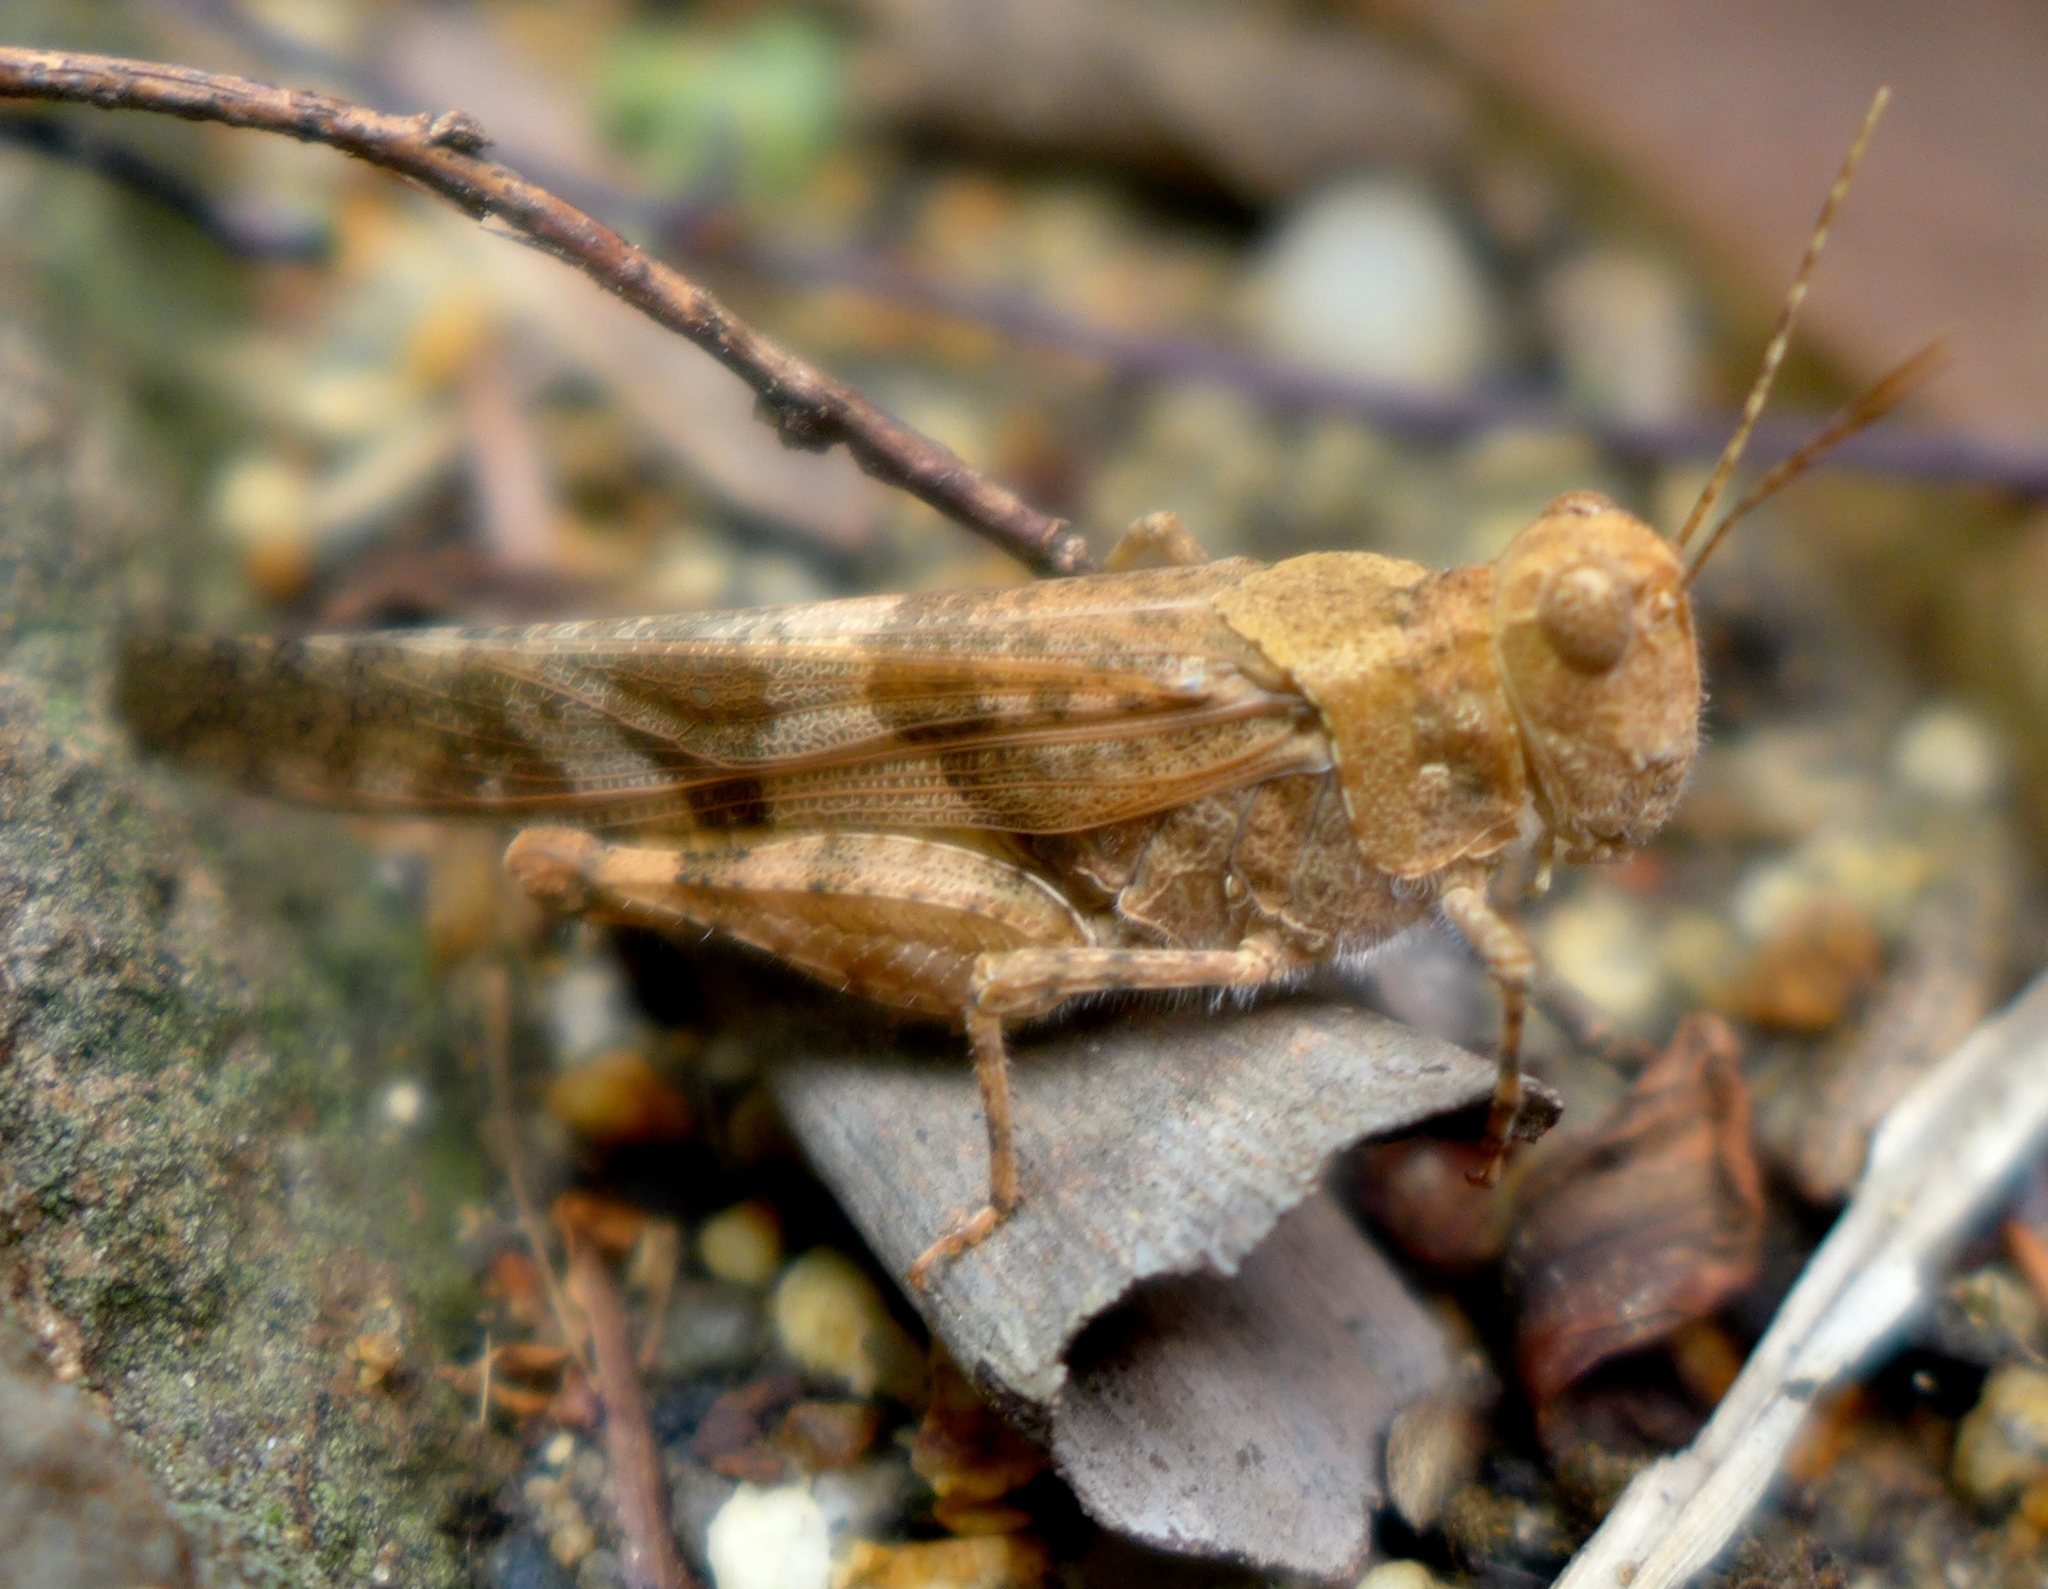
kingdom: Animalia
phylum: Arthropoda
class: Insecta
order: Orthoptera
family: Acrididae
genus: Trimerotropis
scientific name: Trimerotropis pallidipennis
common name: Pallid-winged grasshopper
